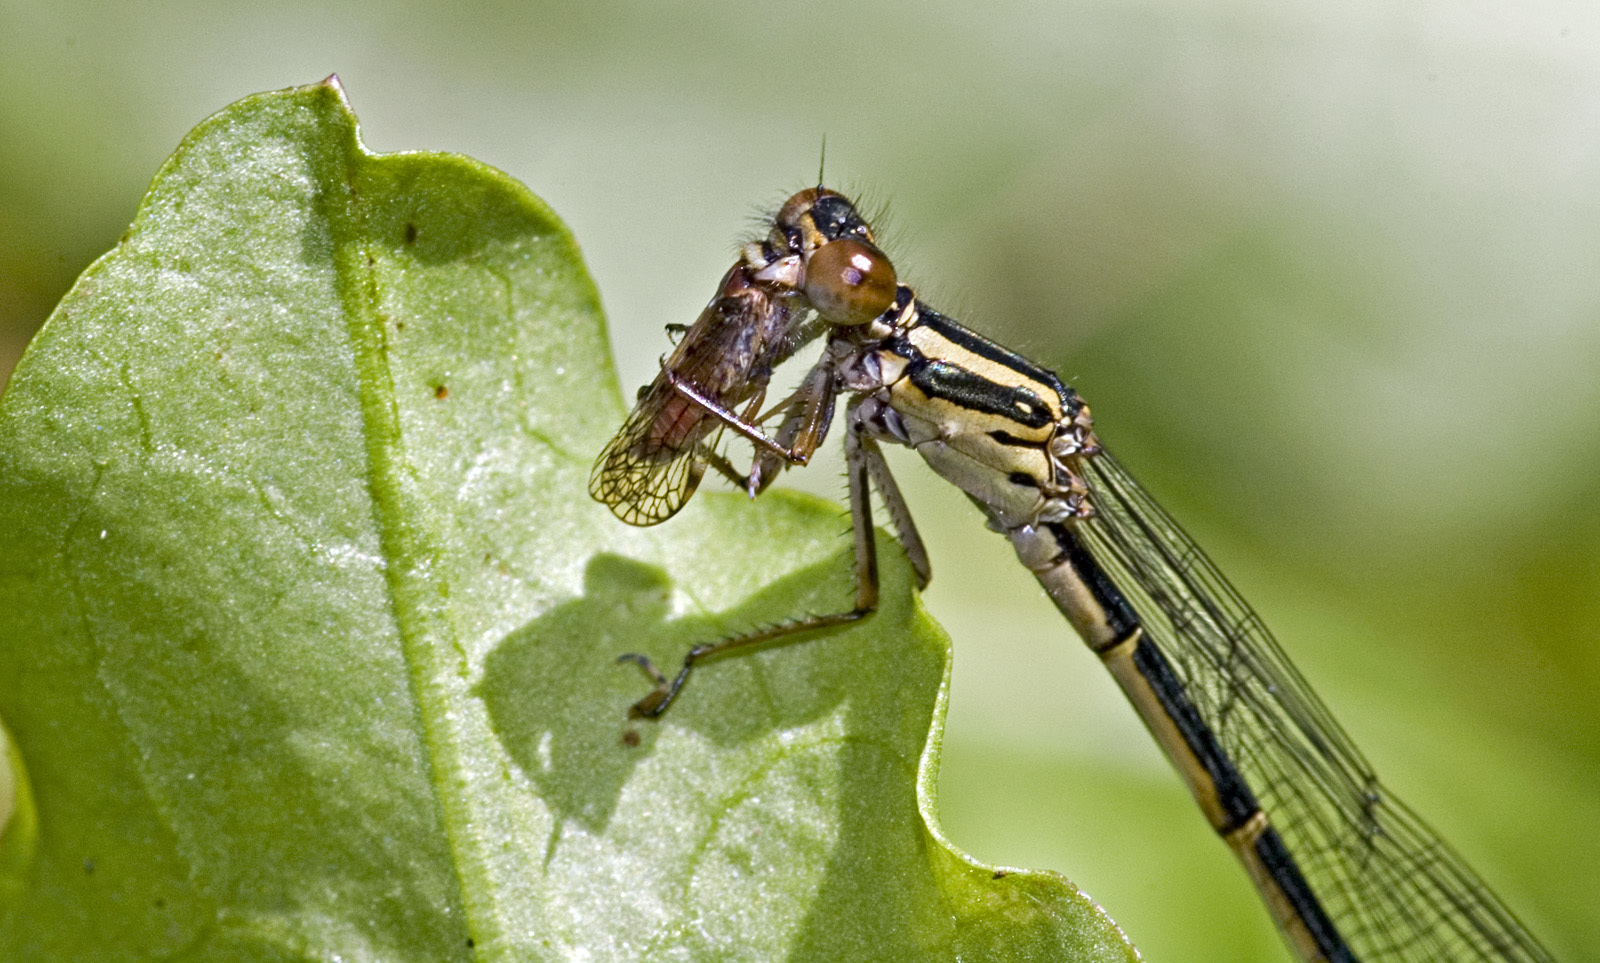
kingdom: Animalia
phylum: Arthropoda
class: Insecta
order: Odonata
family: Coenagrionidae
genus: Xanthocnemis
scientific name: Xanthocnemis zealandica
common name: Common redcoat damselfly
